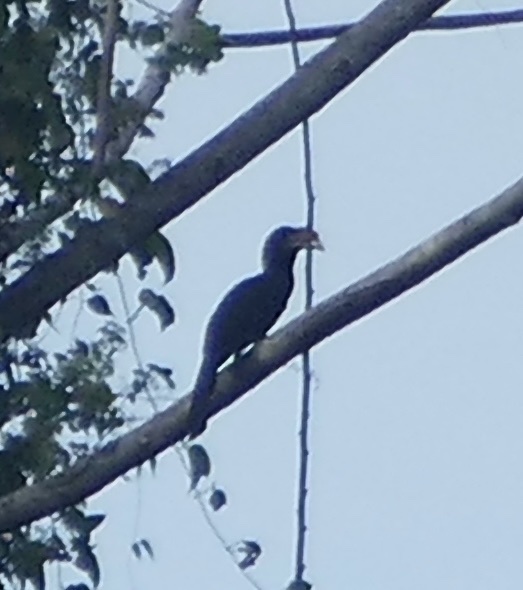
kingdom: Animalia
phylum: Chordata
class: Aves
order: Bucerotiformes
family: Bucerotidae
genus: Rhabdotorrhinus
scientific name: Rhabdotorrhinus exarhatus
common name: Sulawesi hornbill
